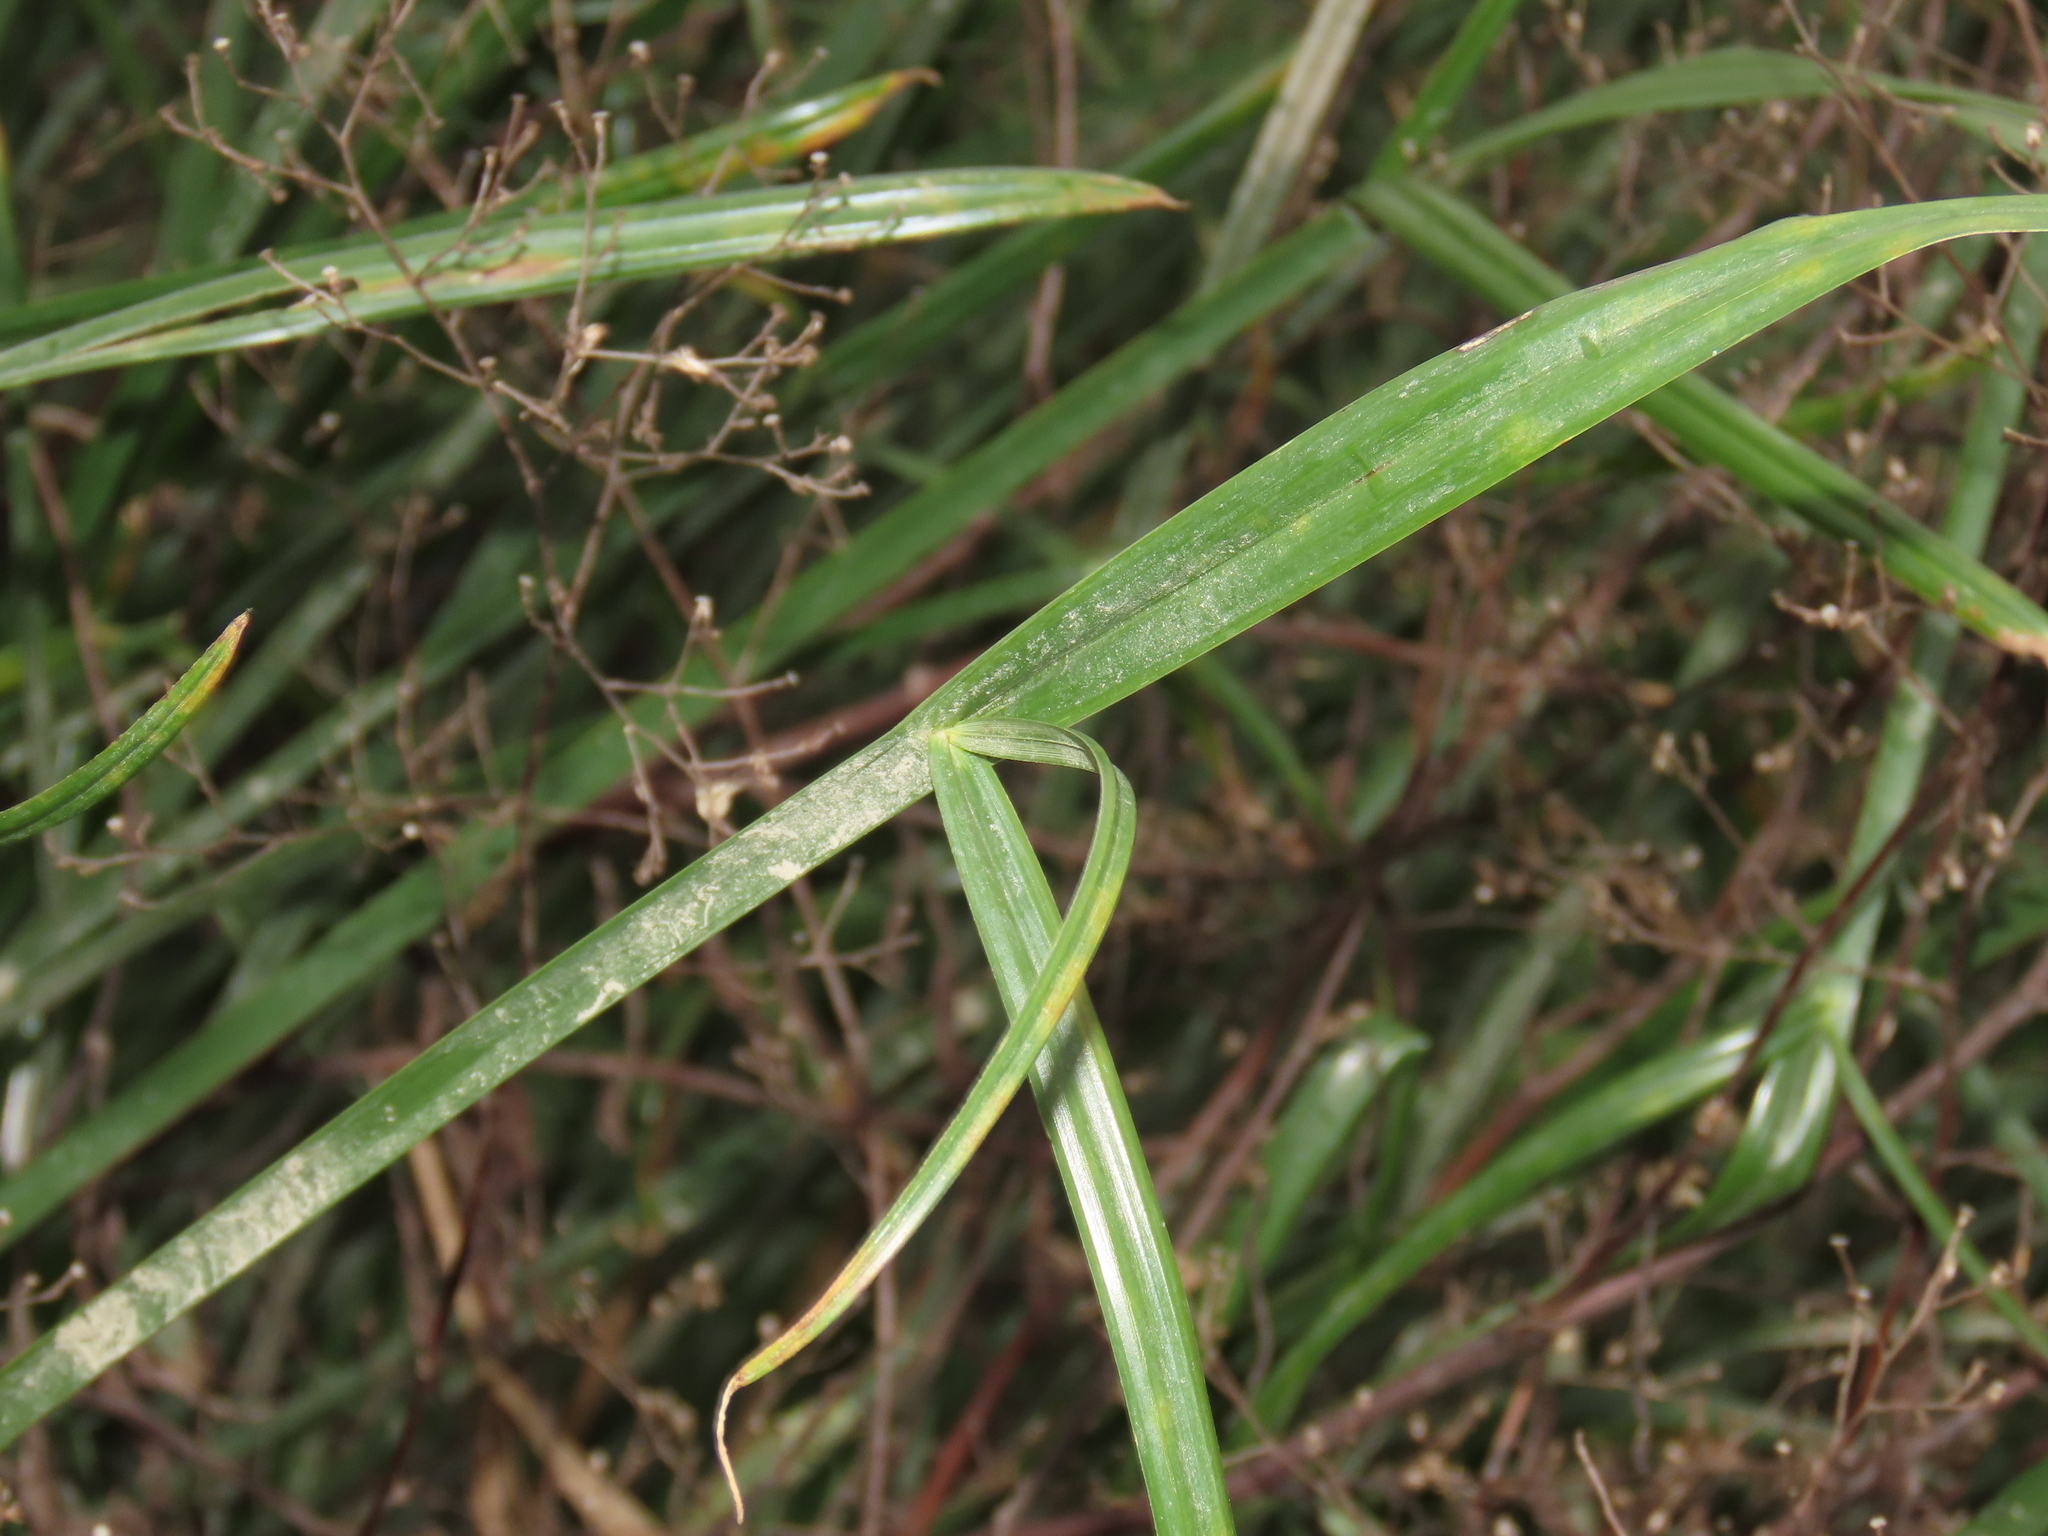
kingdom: Plantae
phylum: Tracheophyta
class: Liliopsida
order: Poales
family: Cyperaceae
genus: Cyperus
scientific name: Cyperus malaccensis
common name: Shichito matgrass
